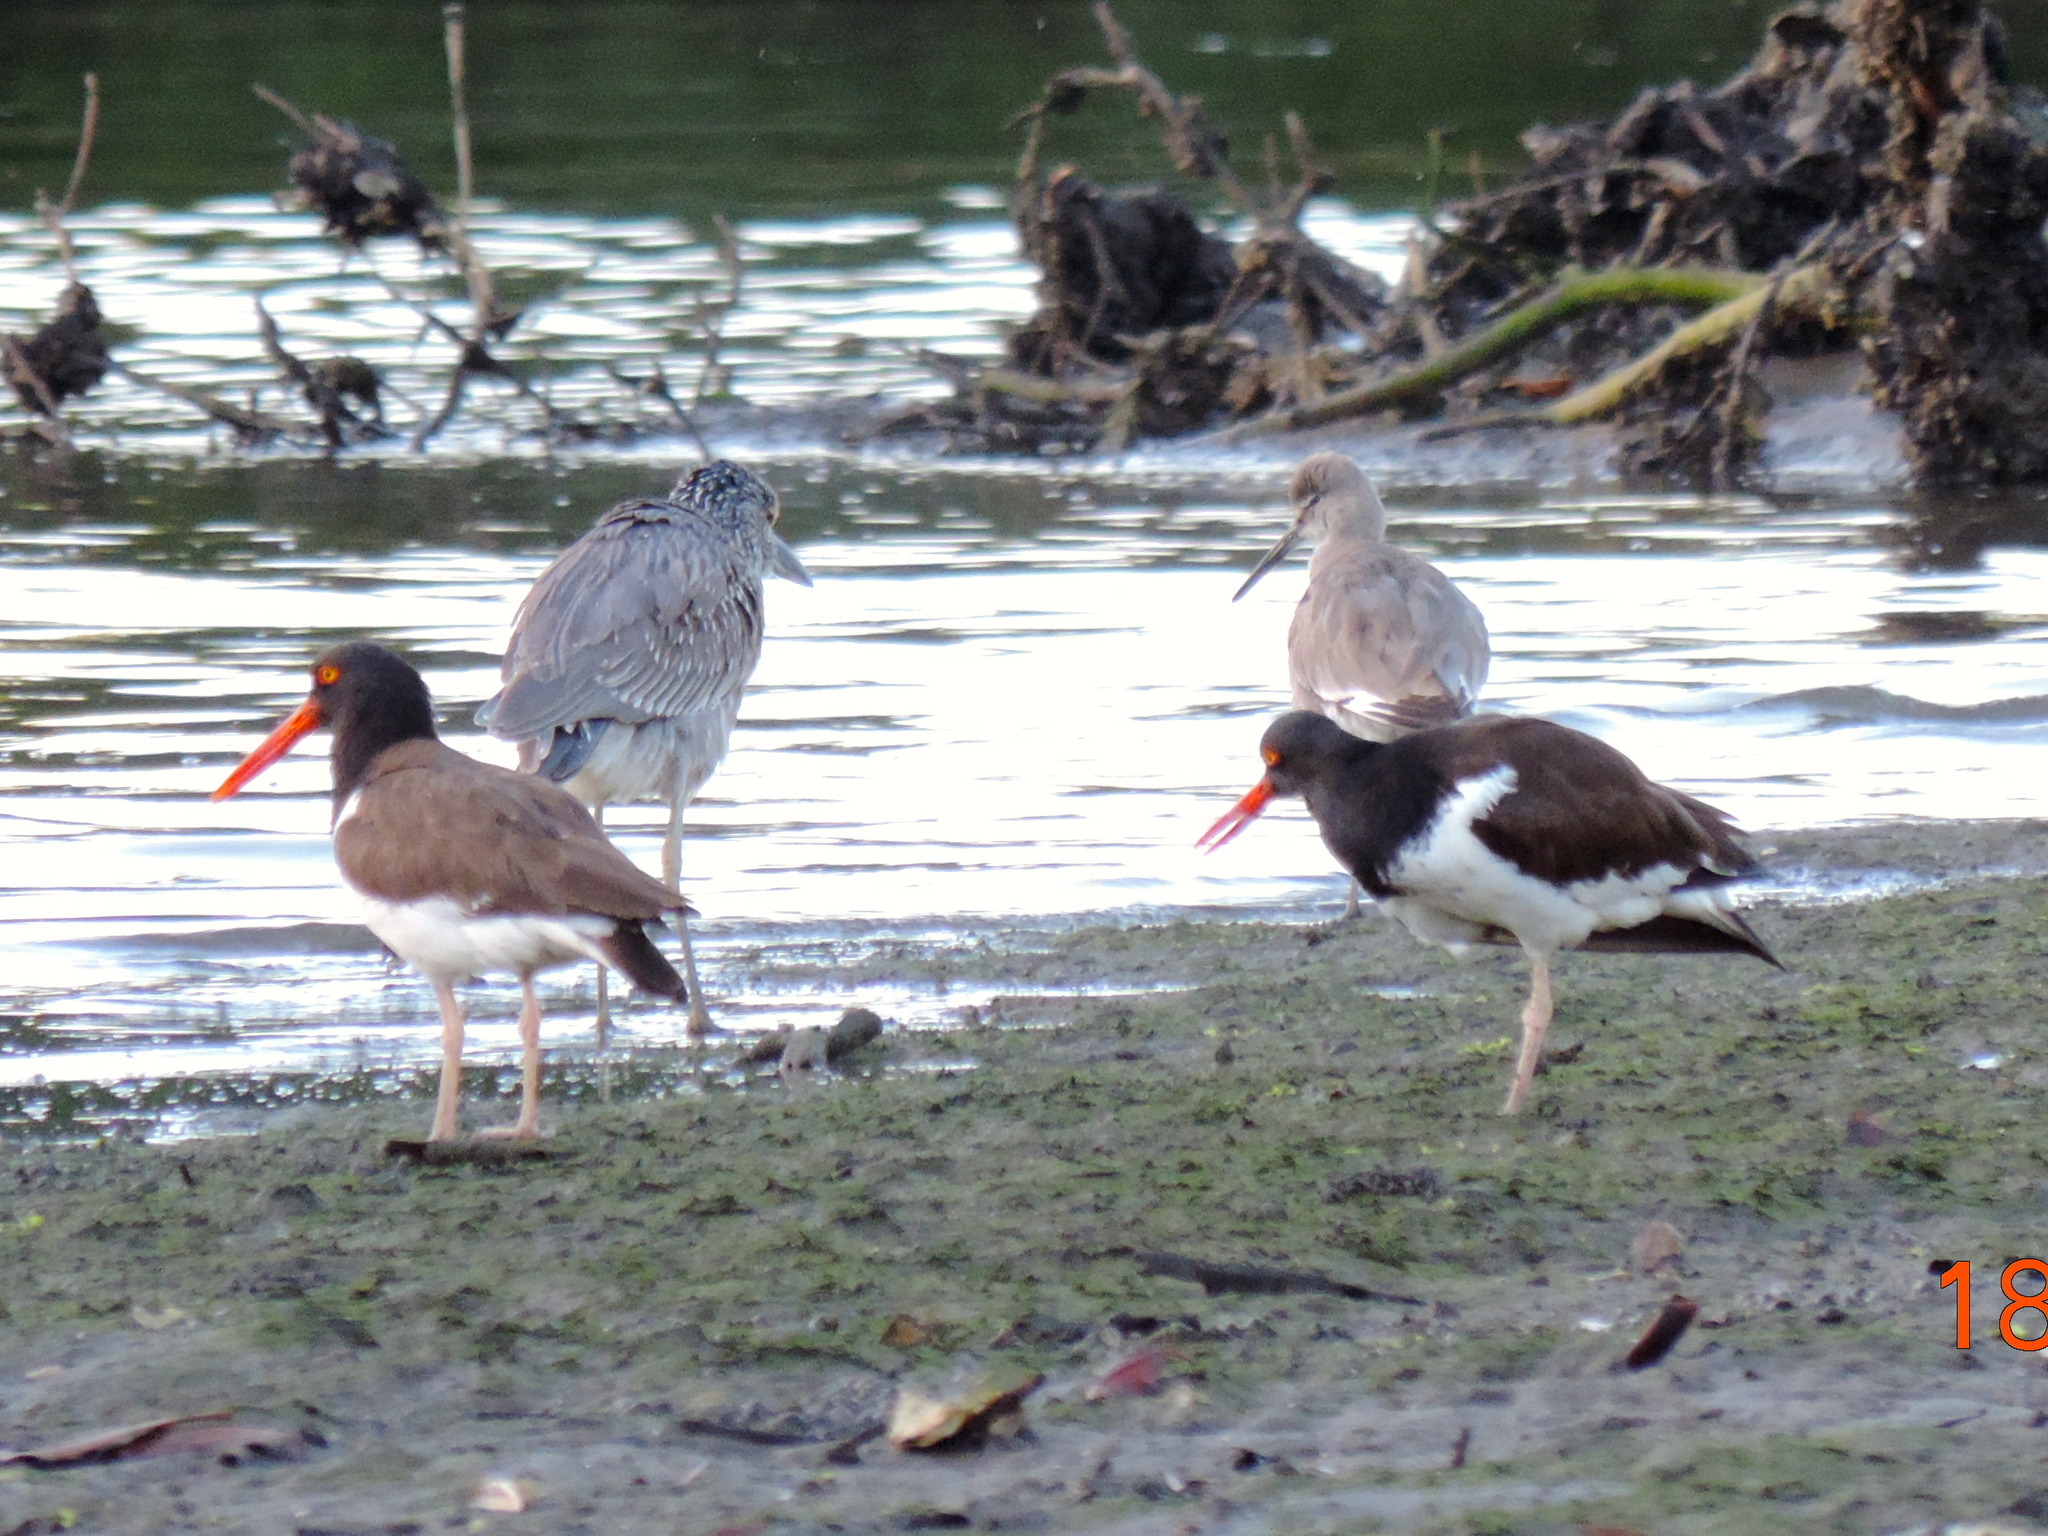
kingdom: Animalia
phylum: Chordata
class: Aves
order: Charadriiformes
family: Haematopodidae
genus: Haematopus
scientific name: Haematopus palliatus
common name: American oystercatcher
